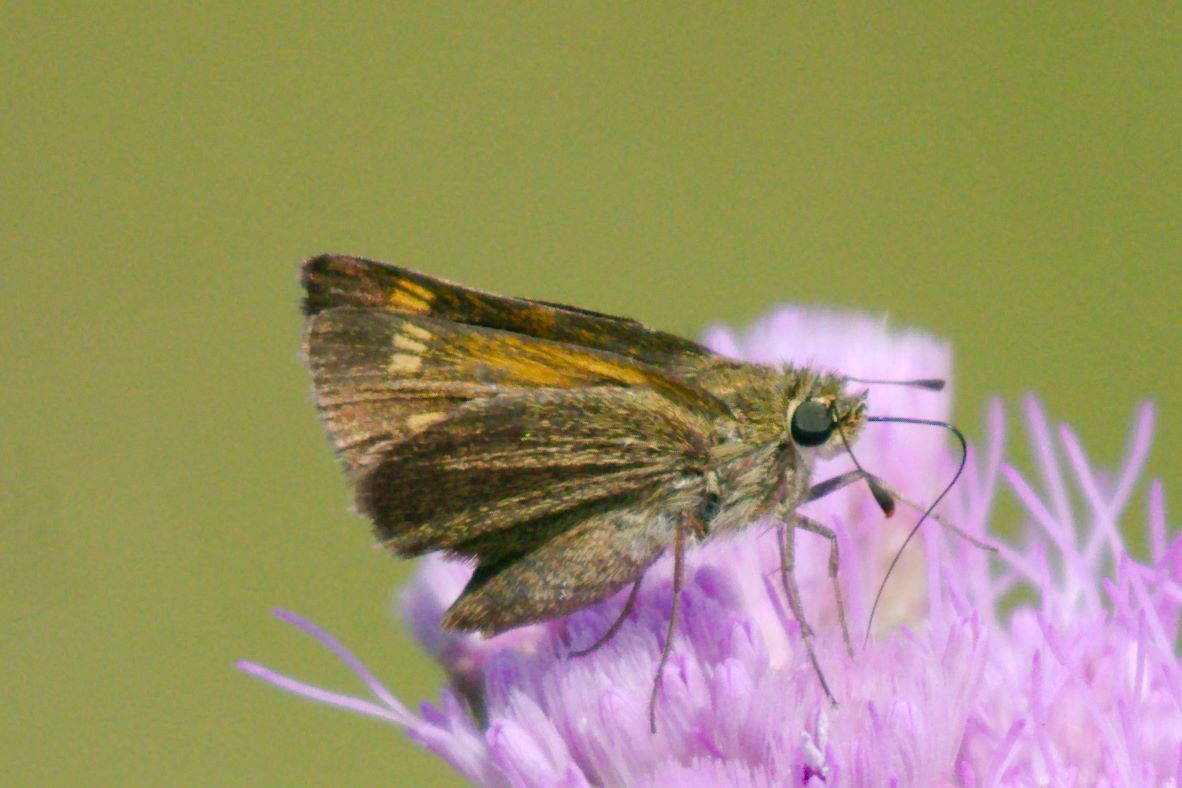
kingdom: Animalia
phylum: Arthropoda
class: Insecta
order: Lepidoptera
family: Hesperiidae
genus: Polites
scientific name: Polites themistocles
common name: Tawny-edged skipper
